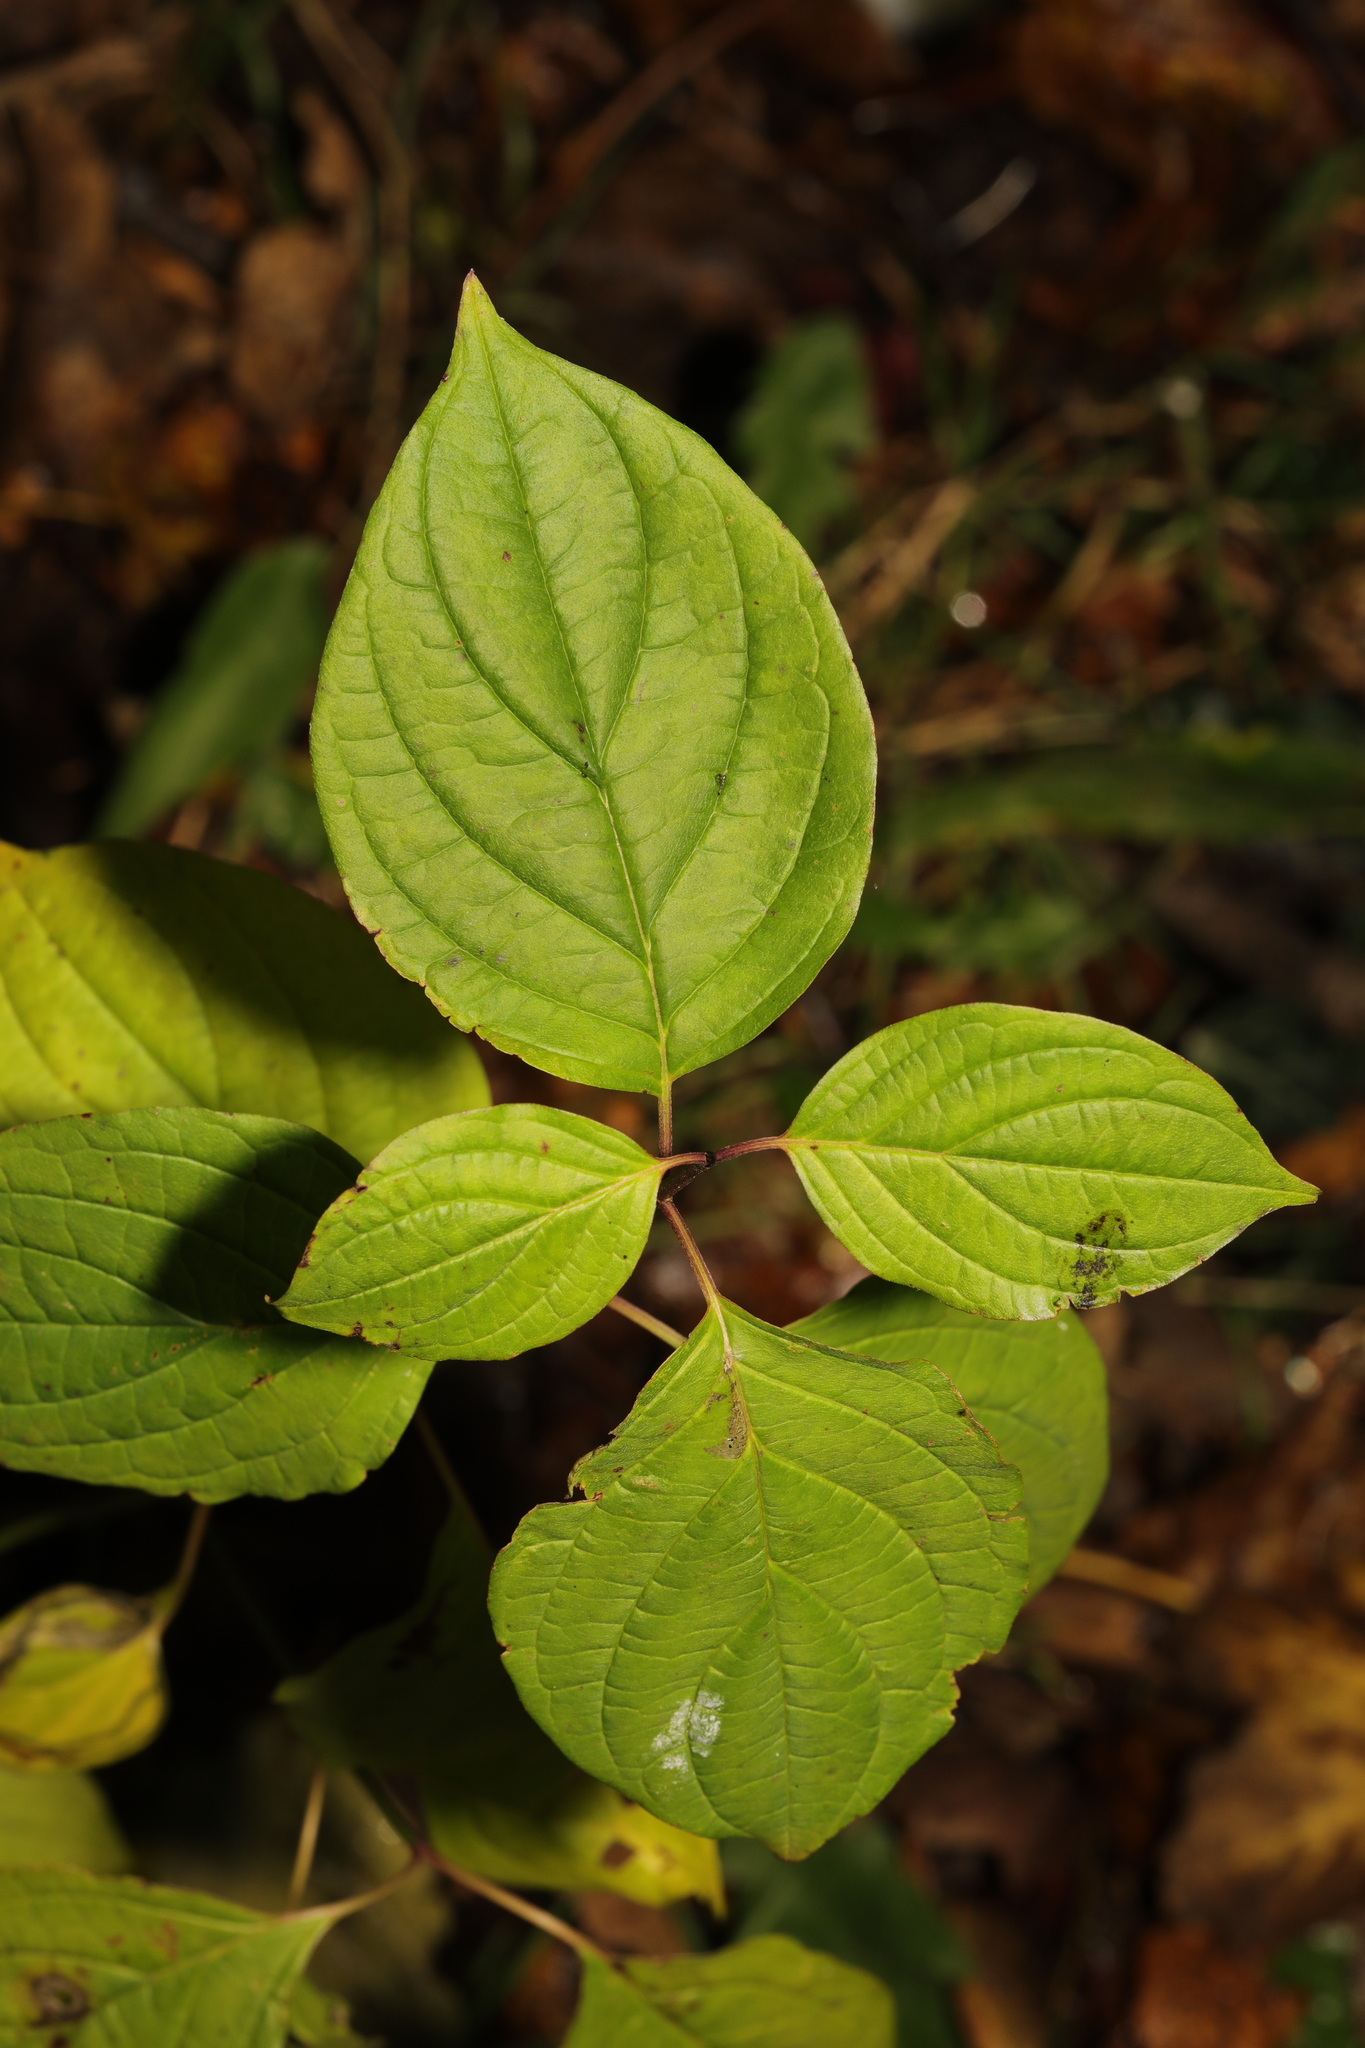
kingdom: Plantae
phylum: Tracheophyta
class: Magnoliopsida
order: Cornales
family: Cornaceae
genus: Cornus
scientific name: Cornus sanguinea
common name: Dogwood
